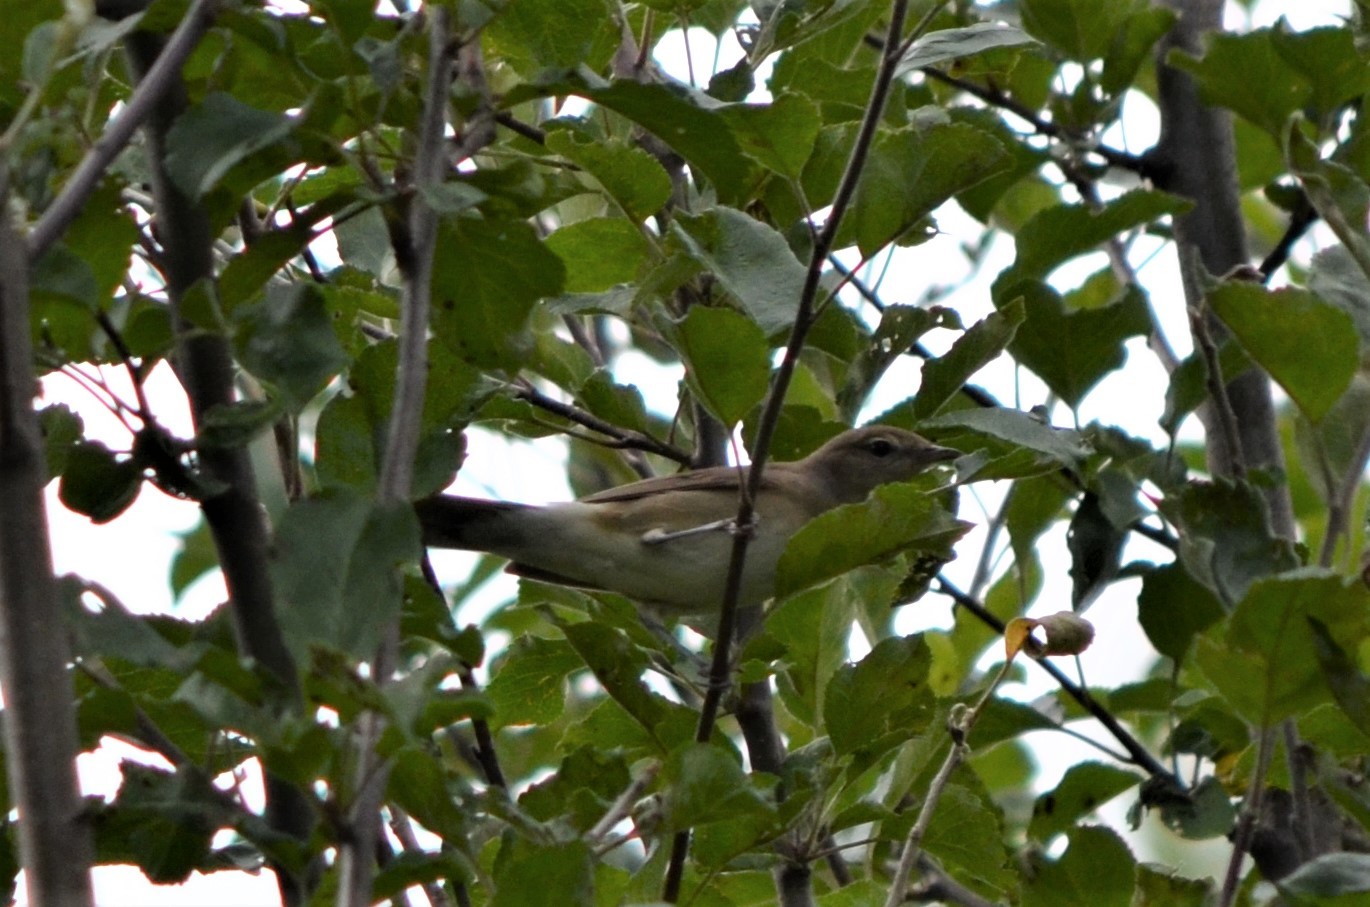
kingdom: Animalia
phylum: Chordata
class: Aves
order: Passeriformes
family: Sylviidae
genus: Sylvia
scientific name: Sylvia borin
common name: Garden warbler
